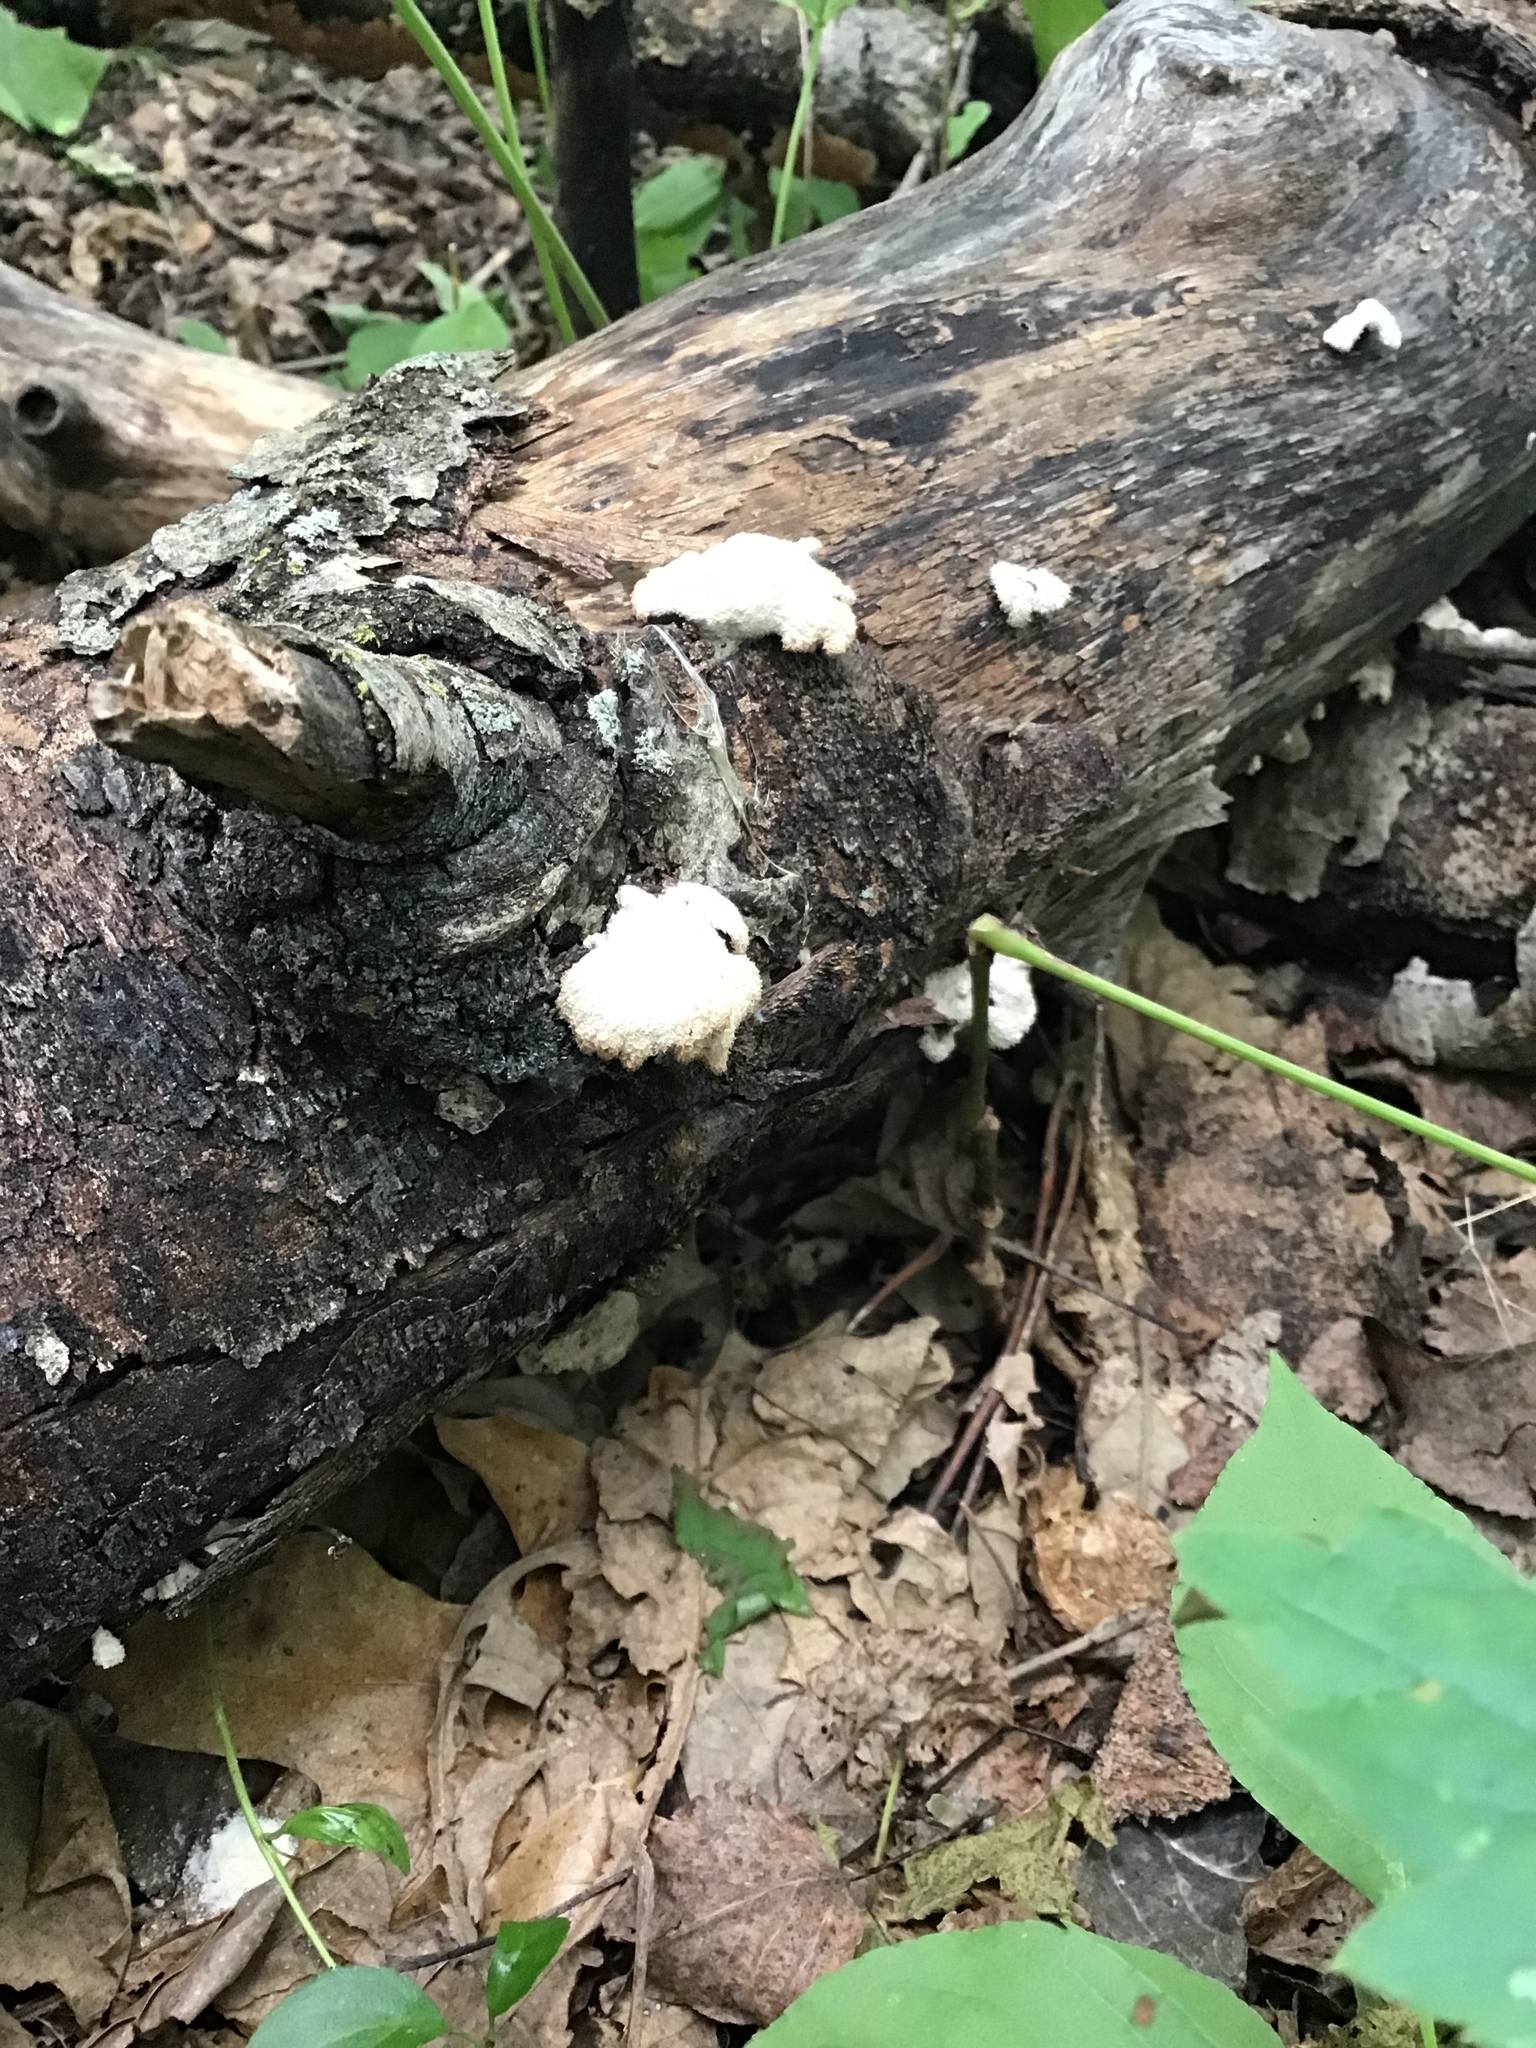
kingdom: Fungi
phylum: Basidiomycota
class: Agaricomycetes
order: Agaricales
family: Schizophyllaceae
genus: Schizophyllum
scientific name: Schizophyllum commune
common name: Common porecrust
